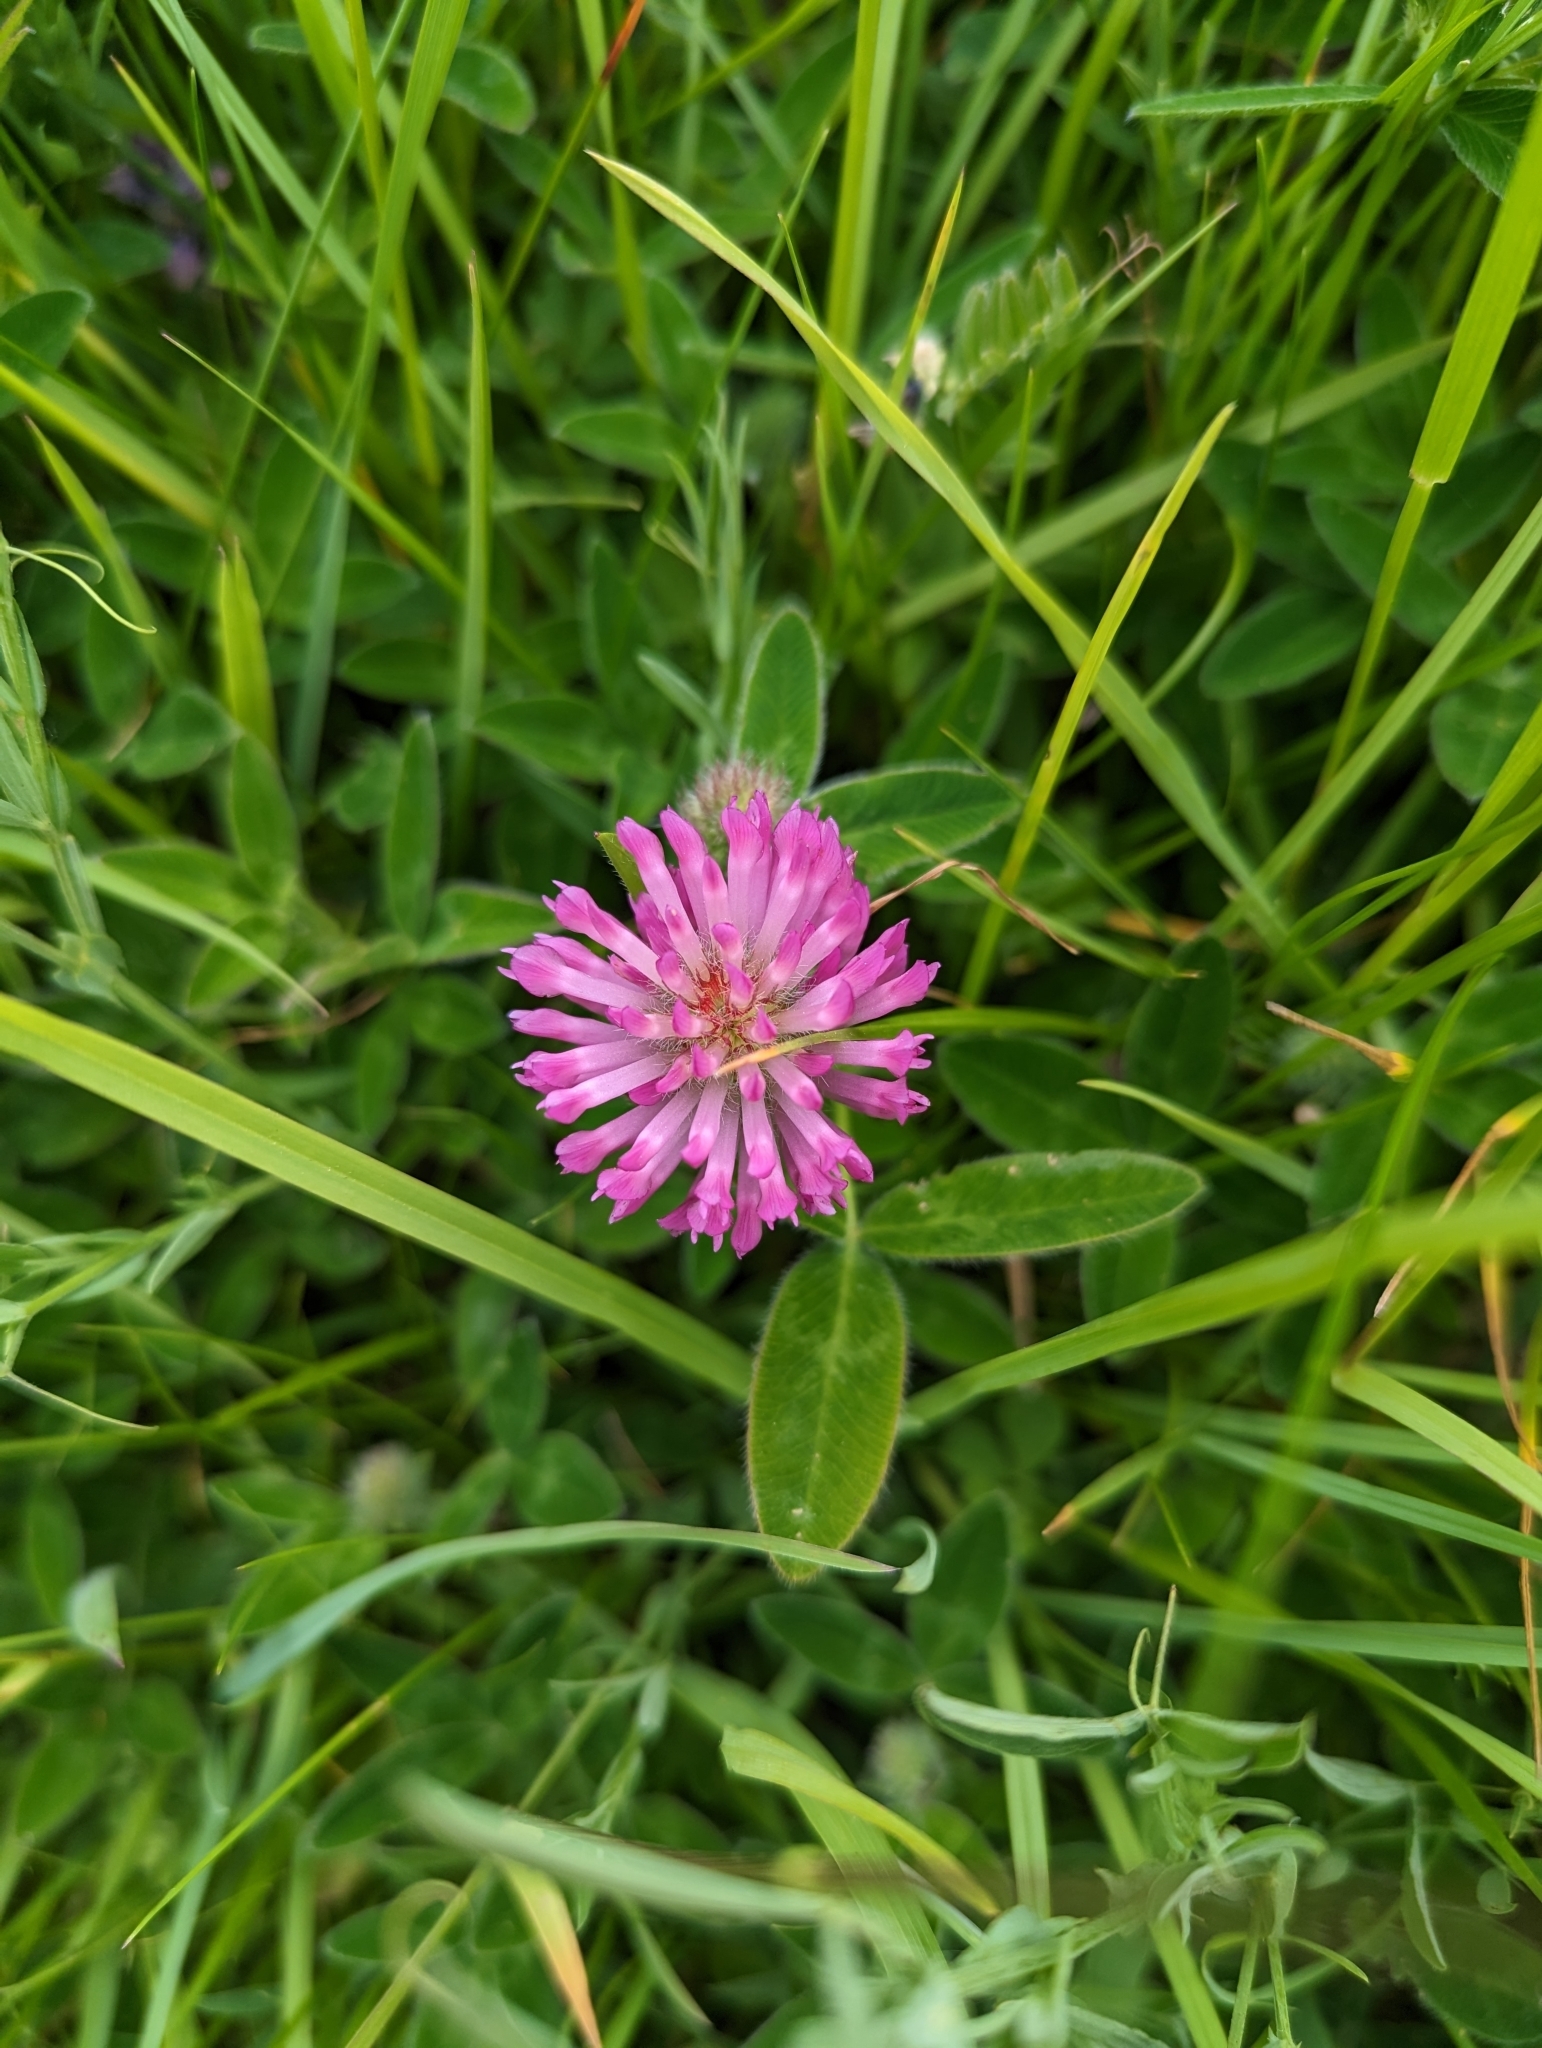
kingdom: Plantae
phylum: Tracheophyta
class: Magnoliopsida
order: Fabales
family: Fabaceae
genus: Trifolium
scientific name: Trifolium pratense
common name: Red clover
